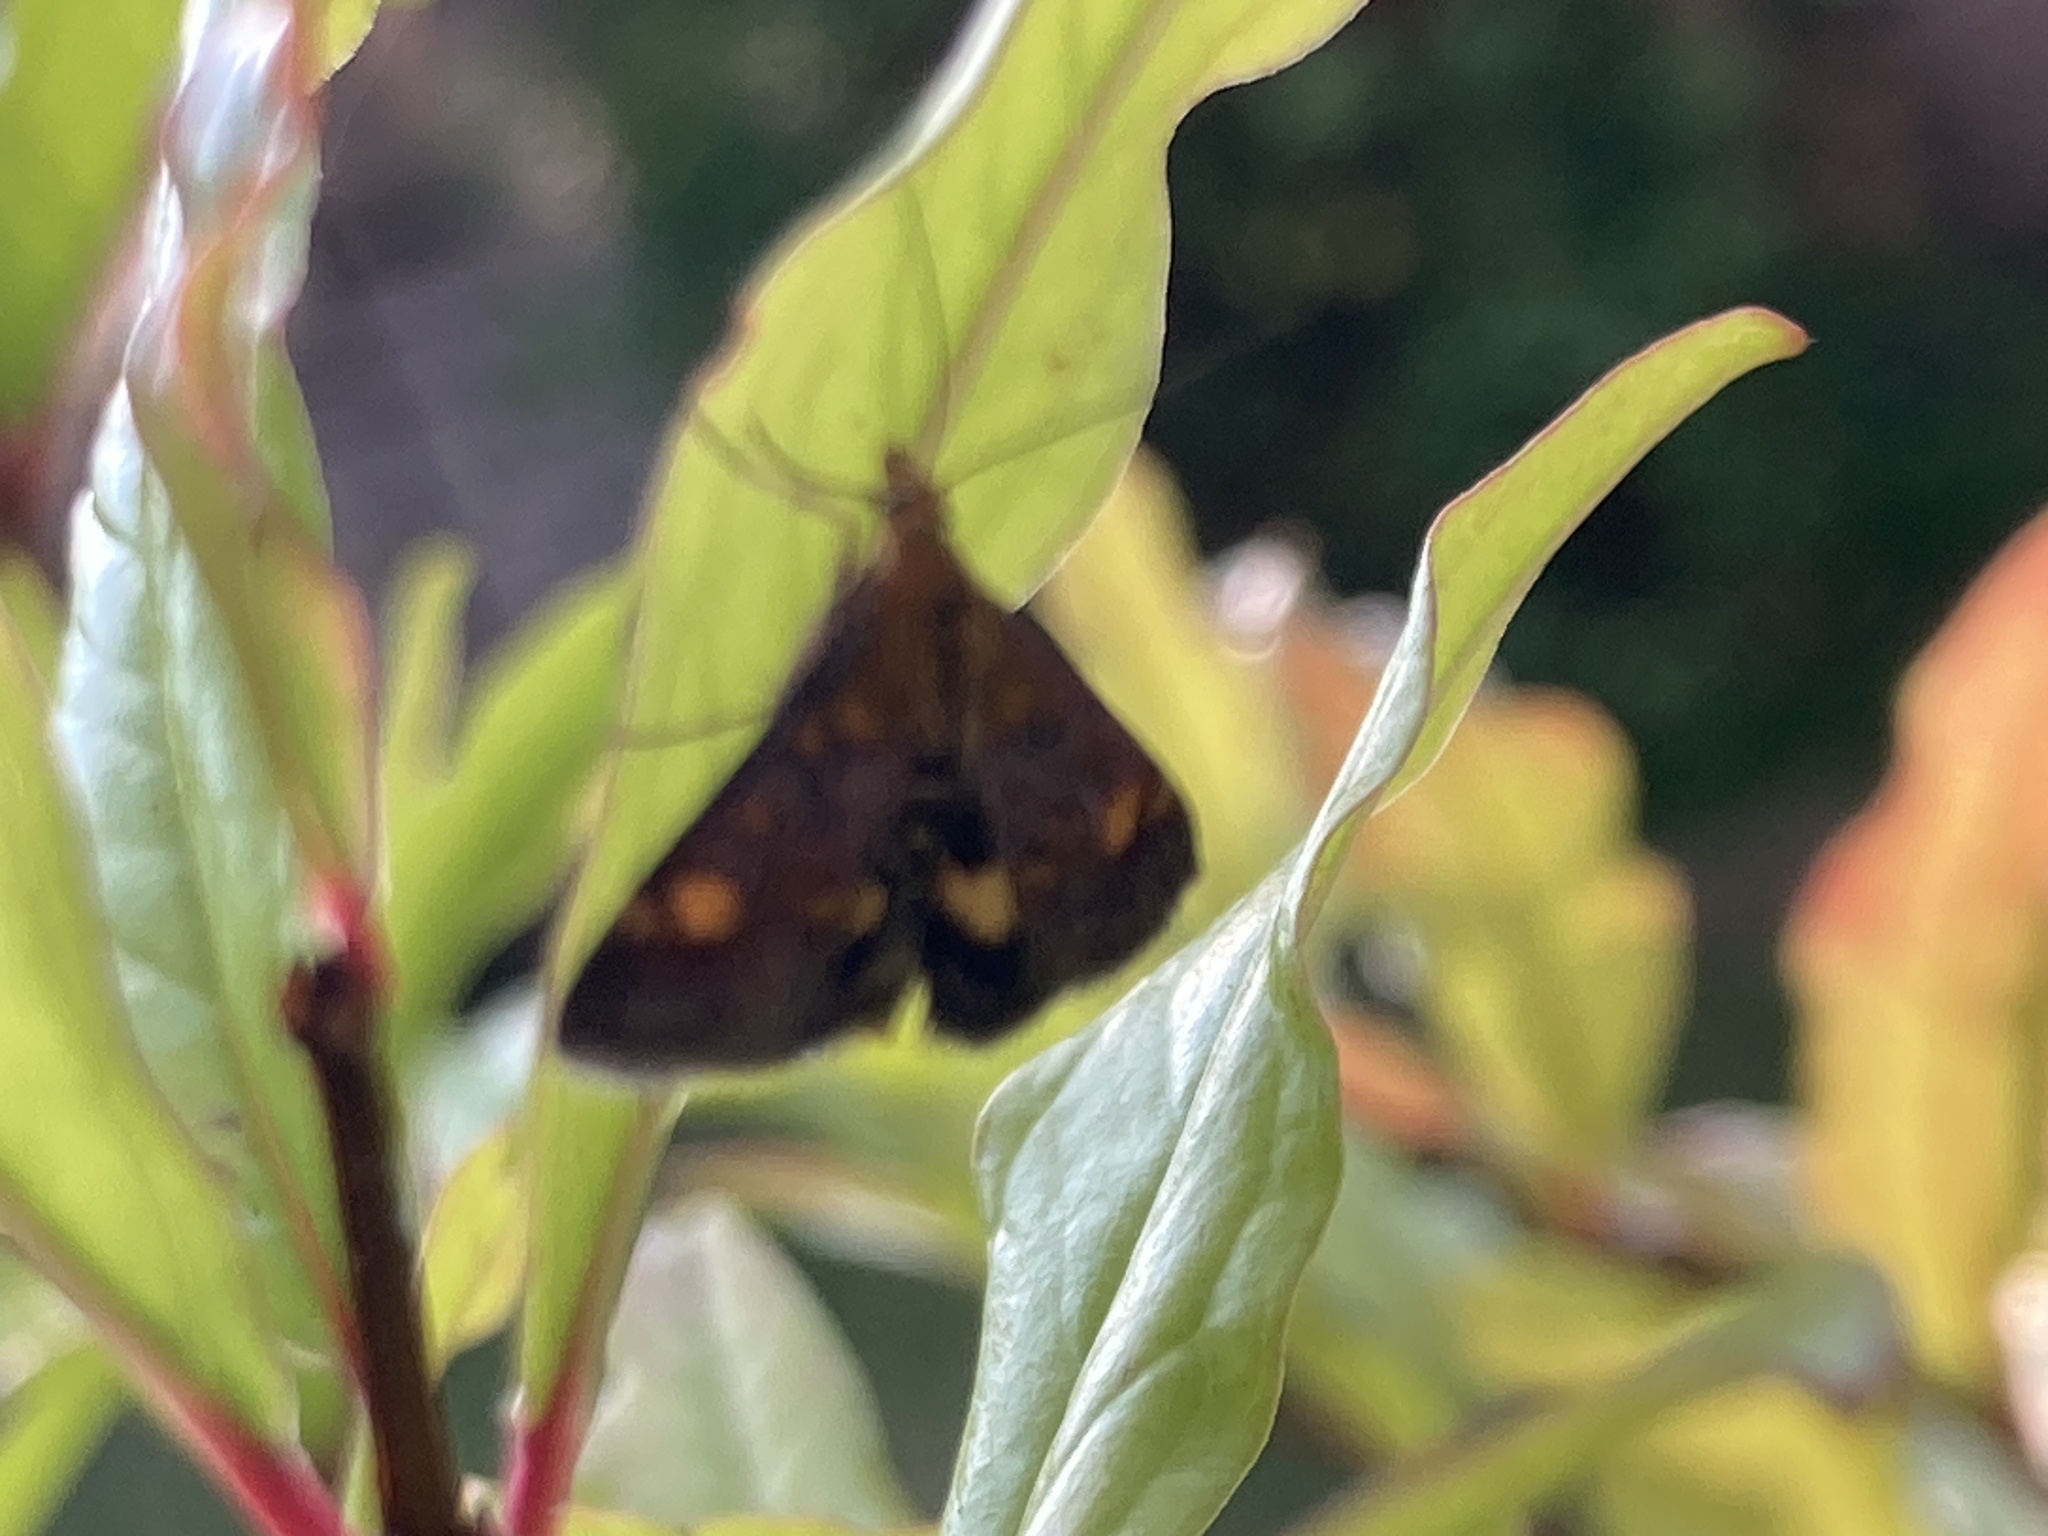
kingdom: Animalia
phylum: Arthropoda
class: Insecta
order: Lepidoptera
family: Crambidae
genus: Pyrausta
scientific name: Pyrausta aurata
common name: Small purple & gold
